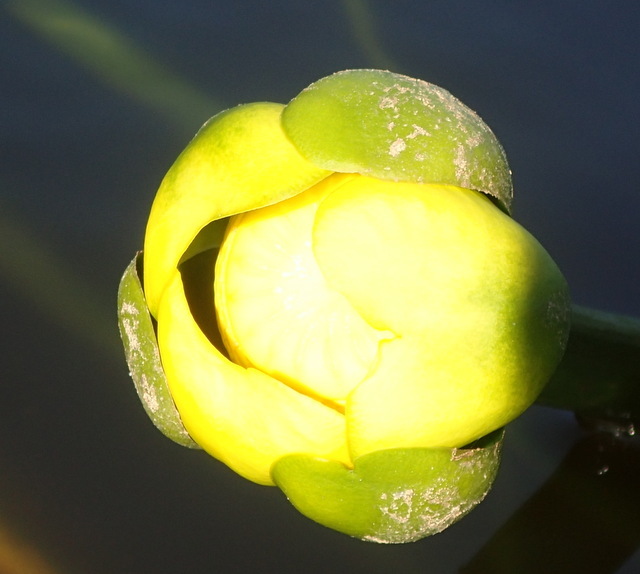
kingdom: Plantae
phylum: Tracheophyta
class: Magnoliopsida
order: Nymphaeales
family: Nymphaeaceae
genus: Nuphar
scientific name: Nuphar advena
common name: Spatter-dock
